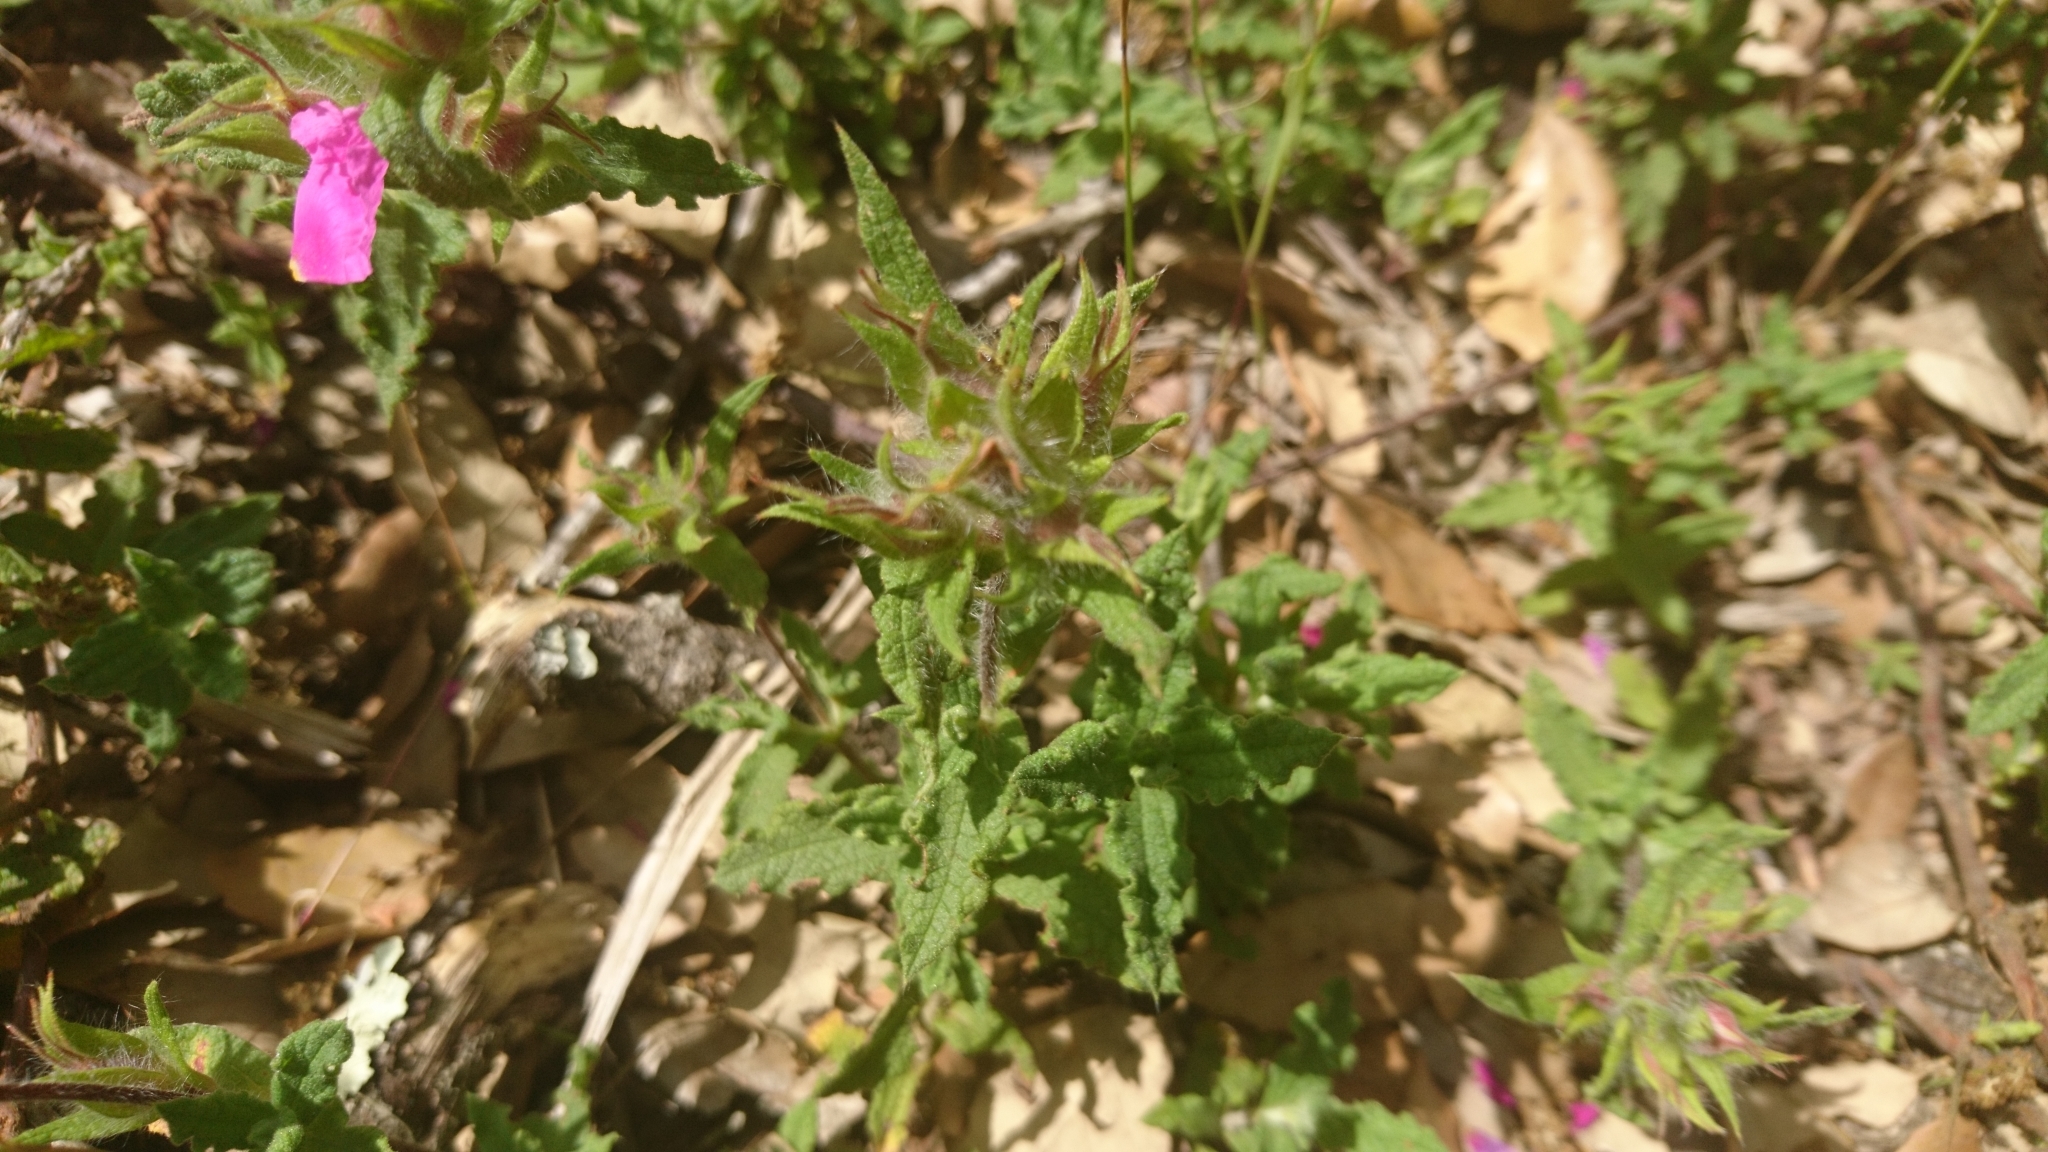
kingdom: Plantae
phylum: Tracheophyta
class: Magnoliopsida
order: Malvales
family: Cistaceae
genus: Cistus
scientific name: Cistus crispus
